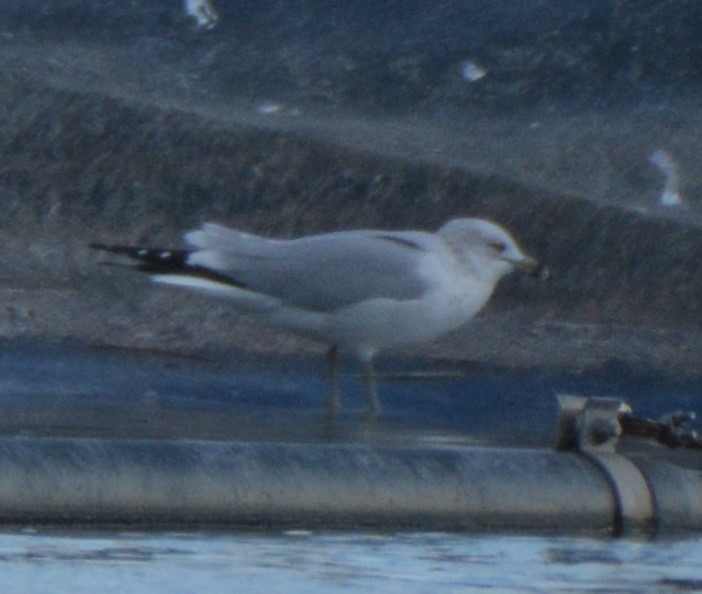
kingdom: Animalia
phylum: Chordata
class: Aves
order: Charadriiformes
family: Laridae
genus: Larus
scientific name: Larus delawarensis
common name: Ring-billed gull
